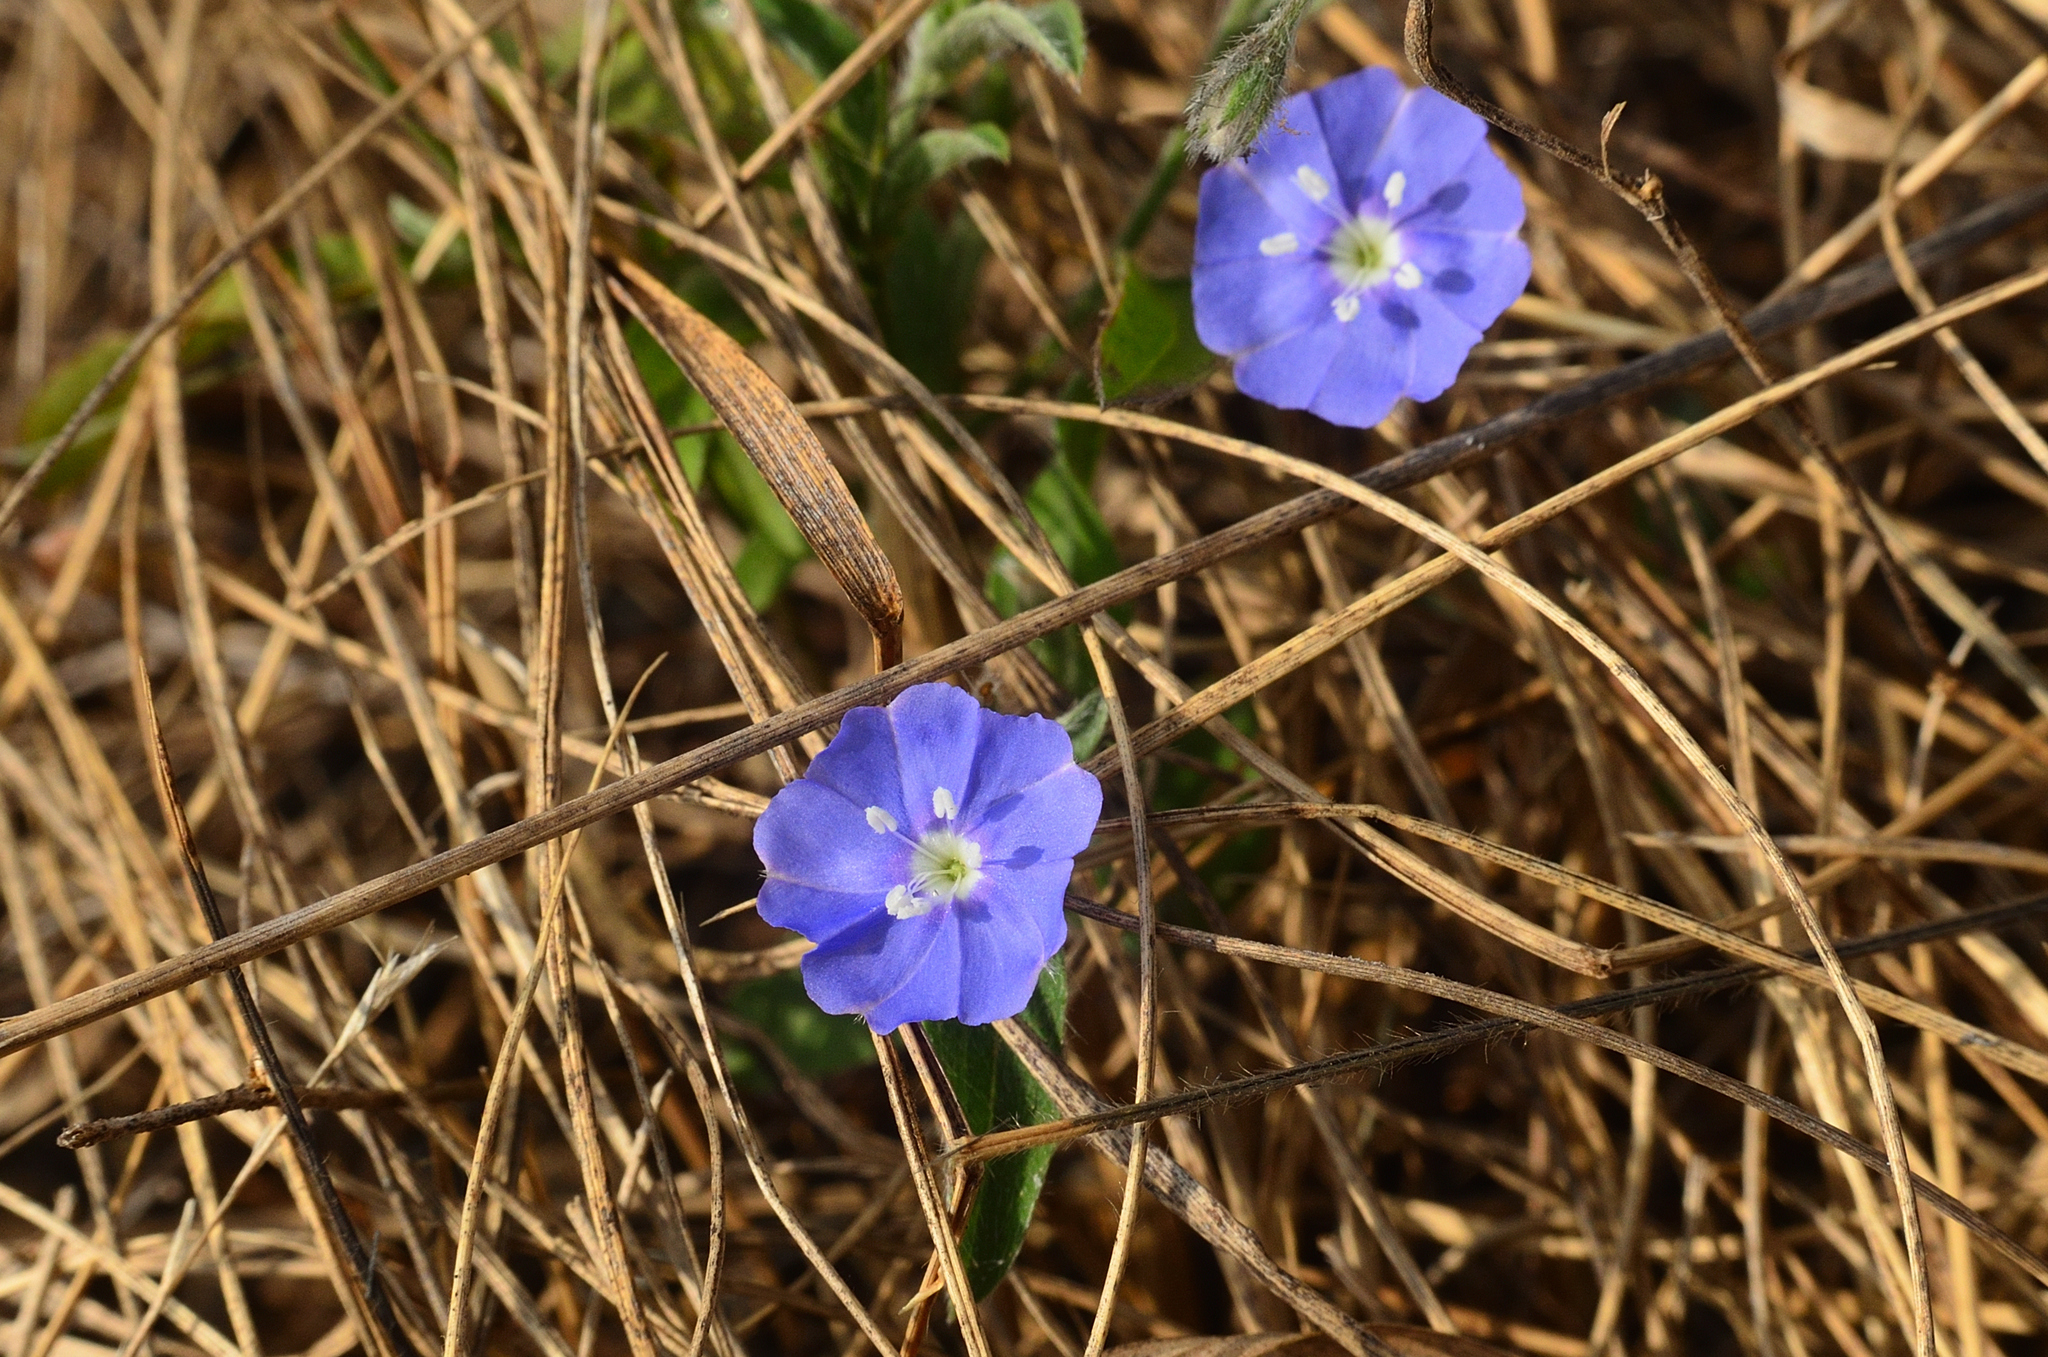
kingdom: Plantae
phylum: Tracheophyta
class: Magnoliopsida
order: Solanales
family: Convolvulaceae
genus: Evolvulus
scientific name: Evolvulus alsinoides
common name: Slender dwarf morning-glory
